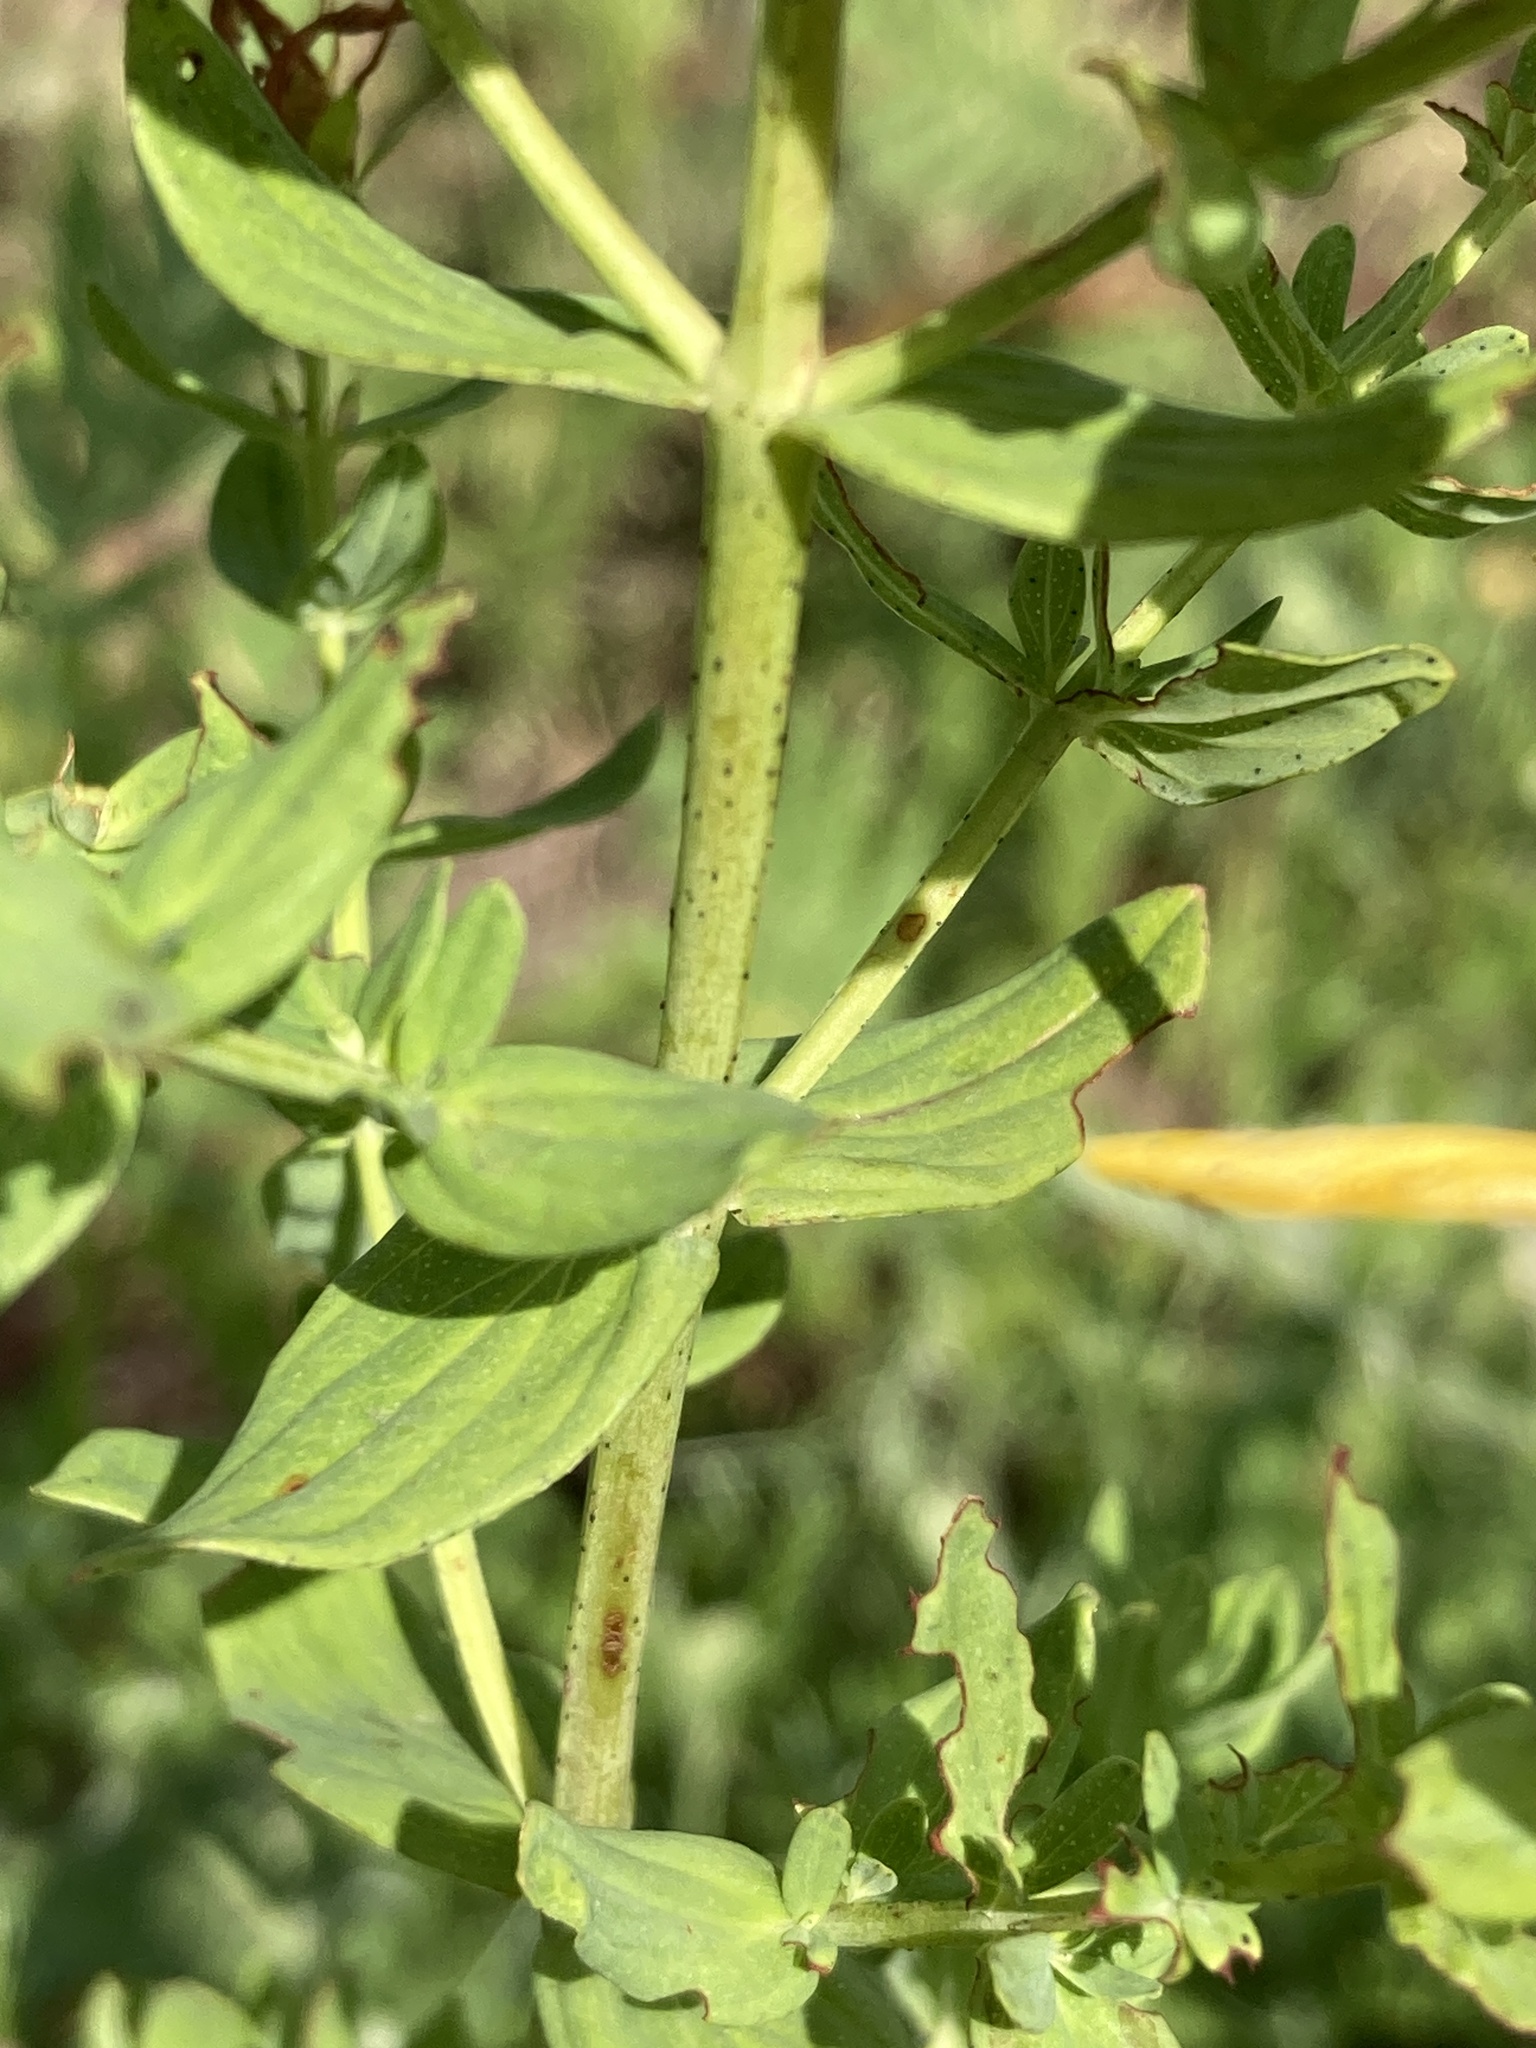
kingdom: Plantae
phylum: Tracheophyta
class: Magnoliopsida
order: Malpighiales
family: Hypericaceae
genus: Hypericum
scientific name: Hypericum perforatum
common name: Common st. johnswort
